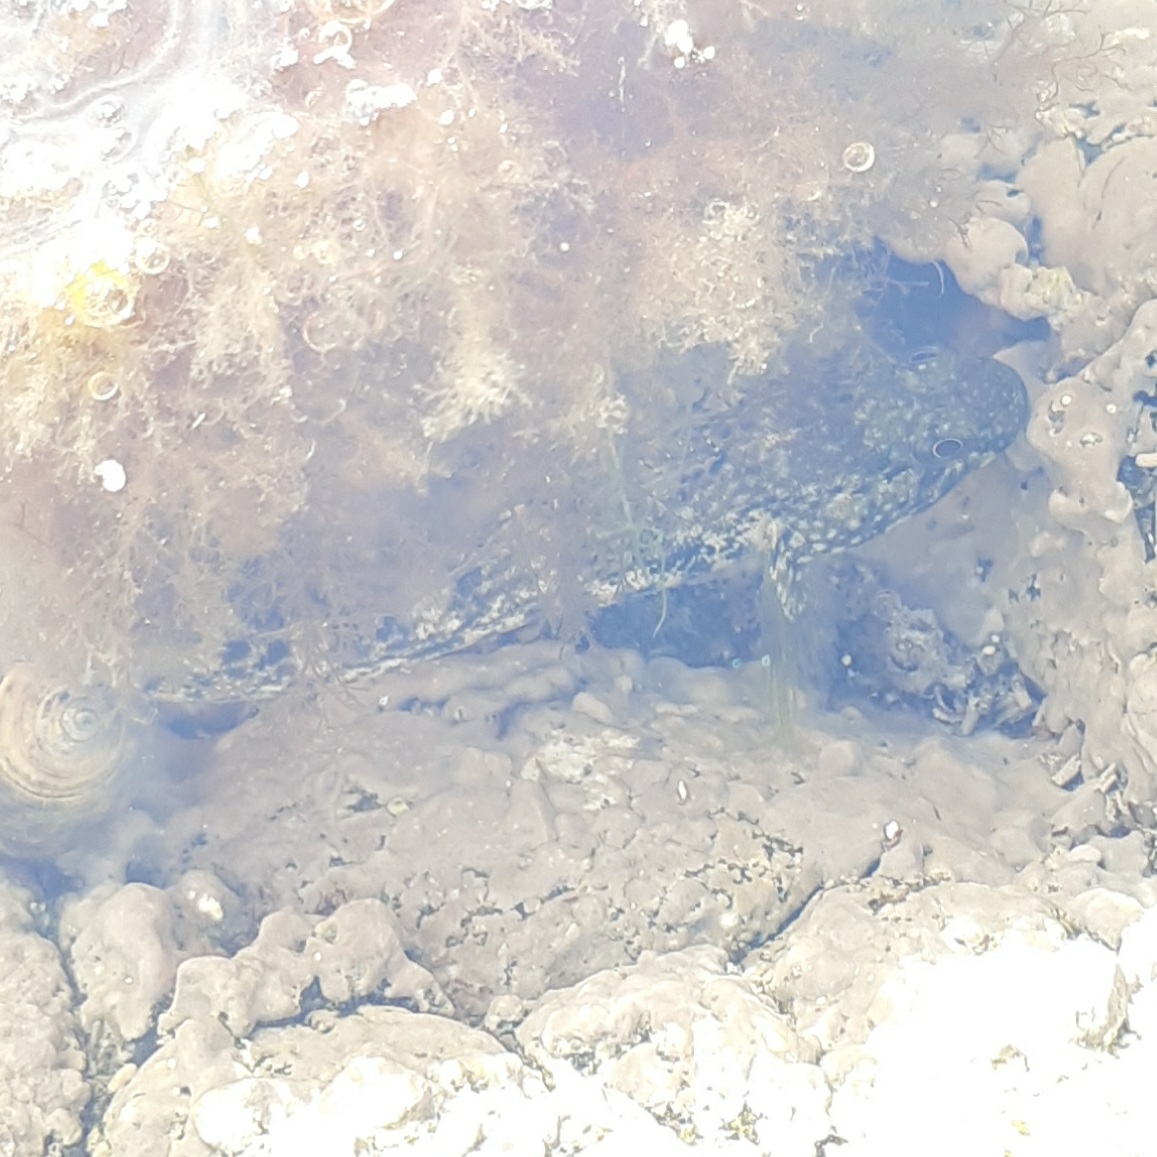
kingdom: Animalia
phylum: Chordata
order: Perciformes
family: Gobiidae
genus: Gobius
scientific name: Gobius cobitis
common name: Giant goby
